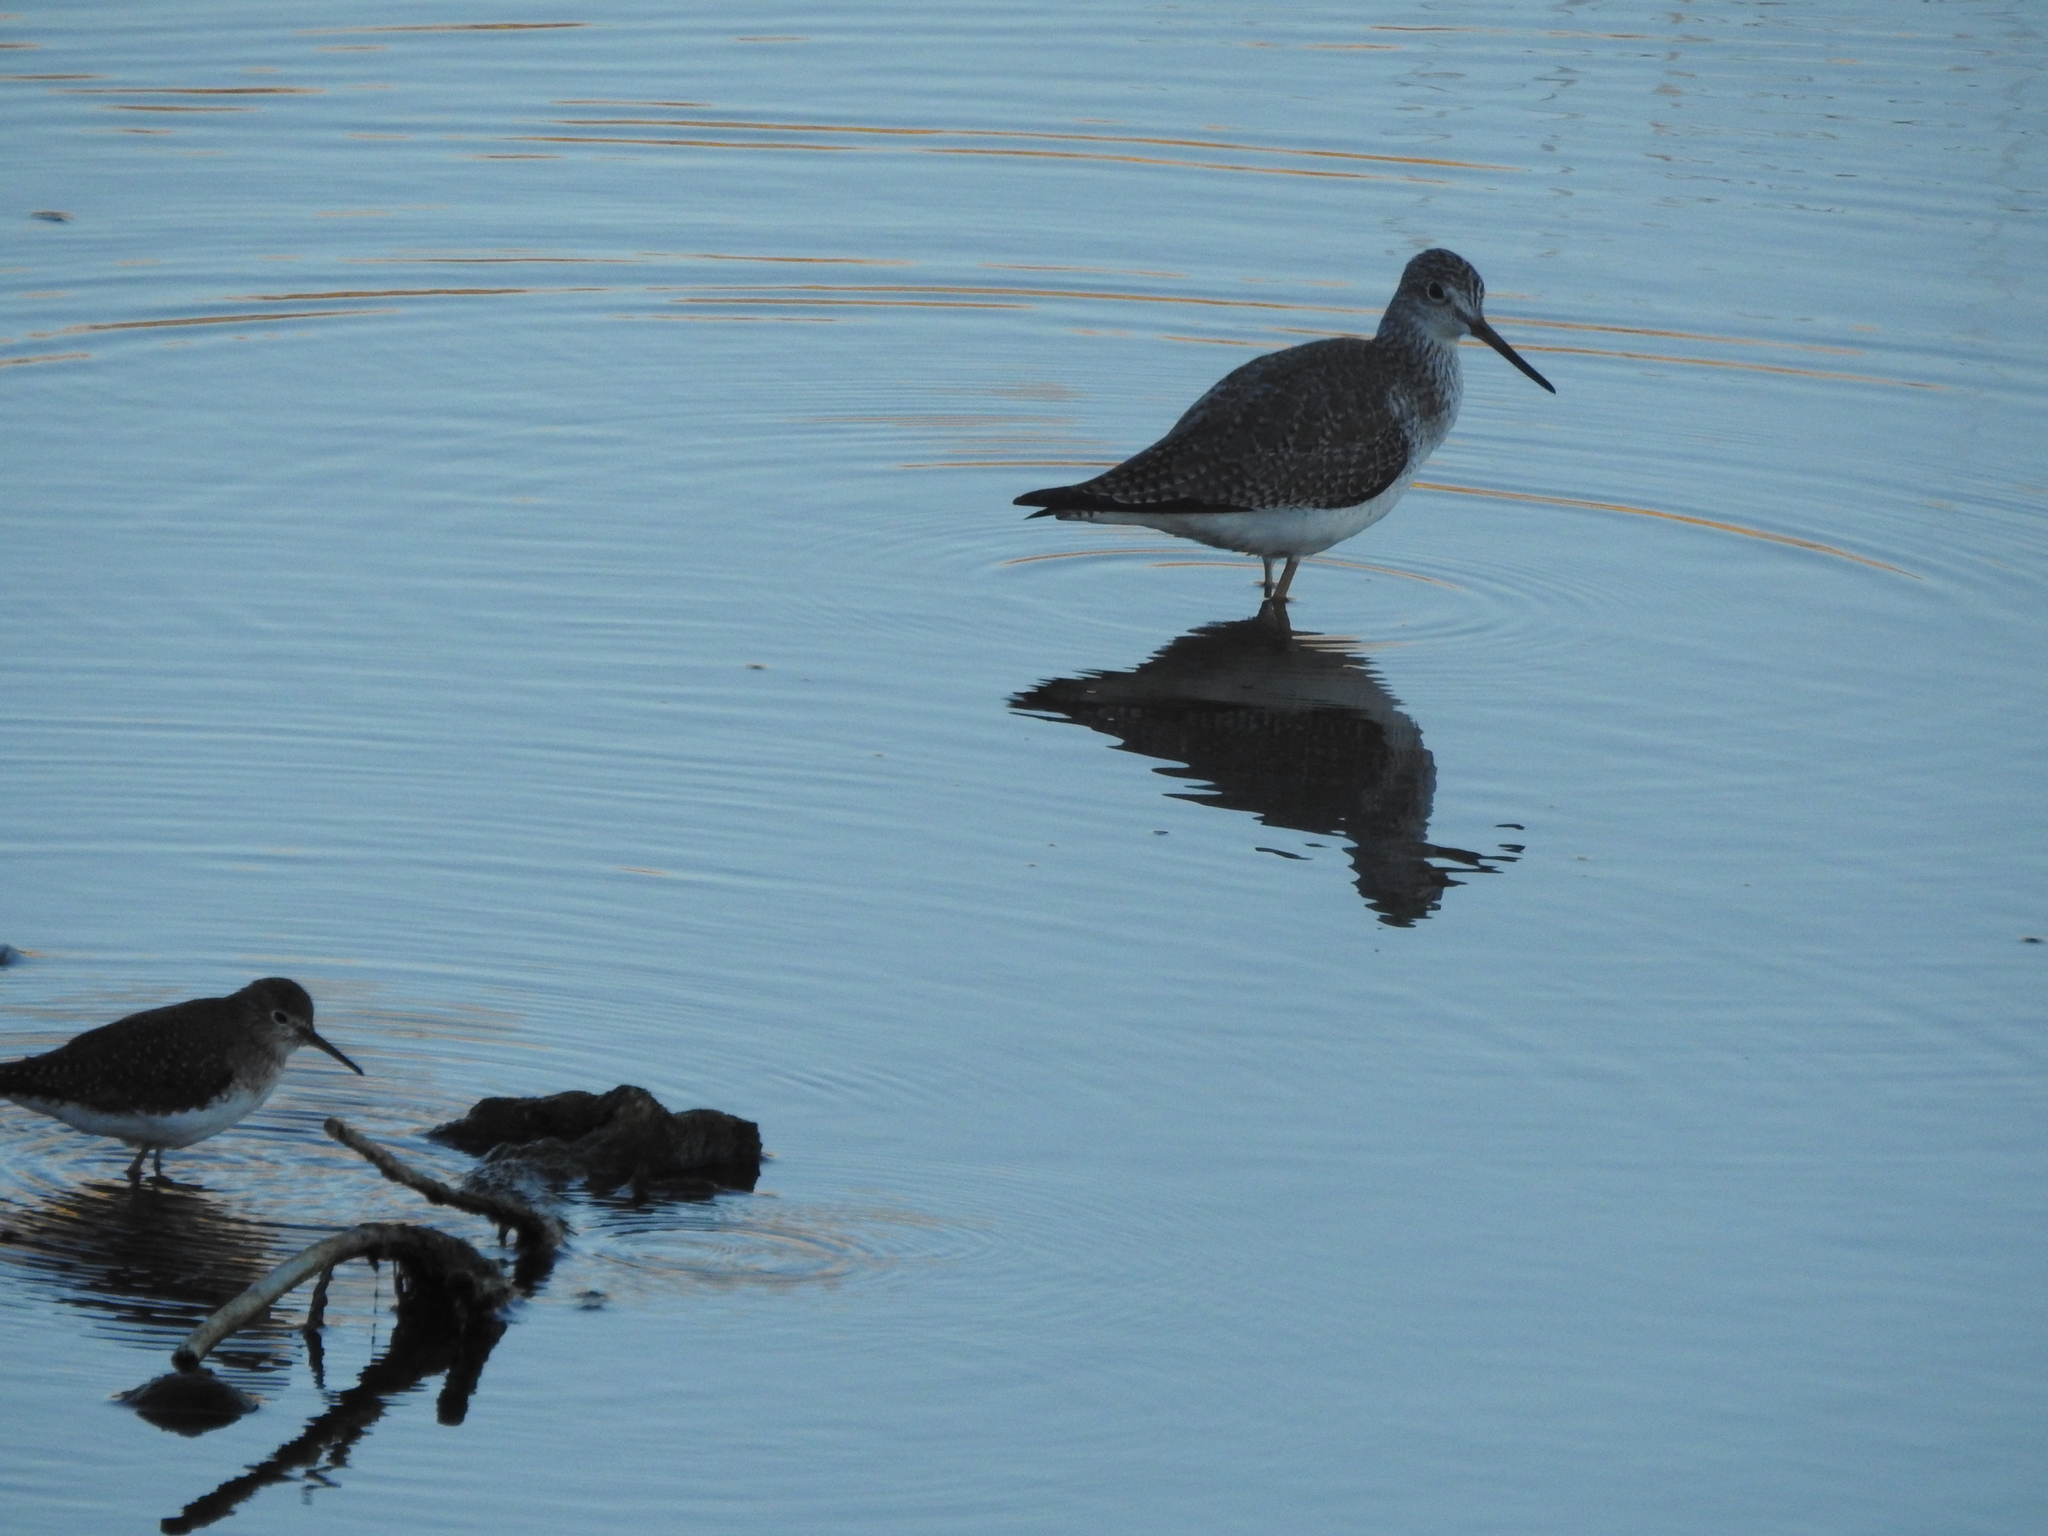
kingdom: Animalia
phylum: Chordata
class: Aves
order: Charadriiformes
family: Scolopacidae
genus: Tringa
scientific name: Tringa melanoleuca
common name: Greater yellowlegs
